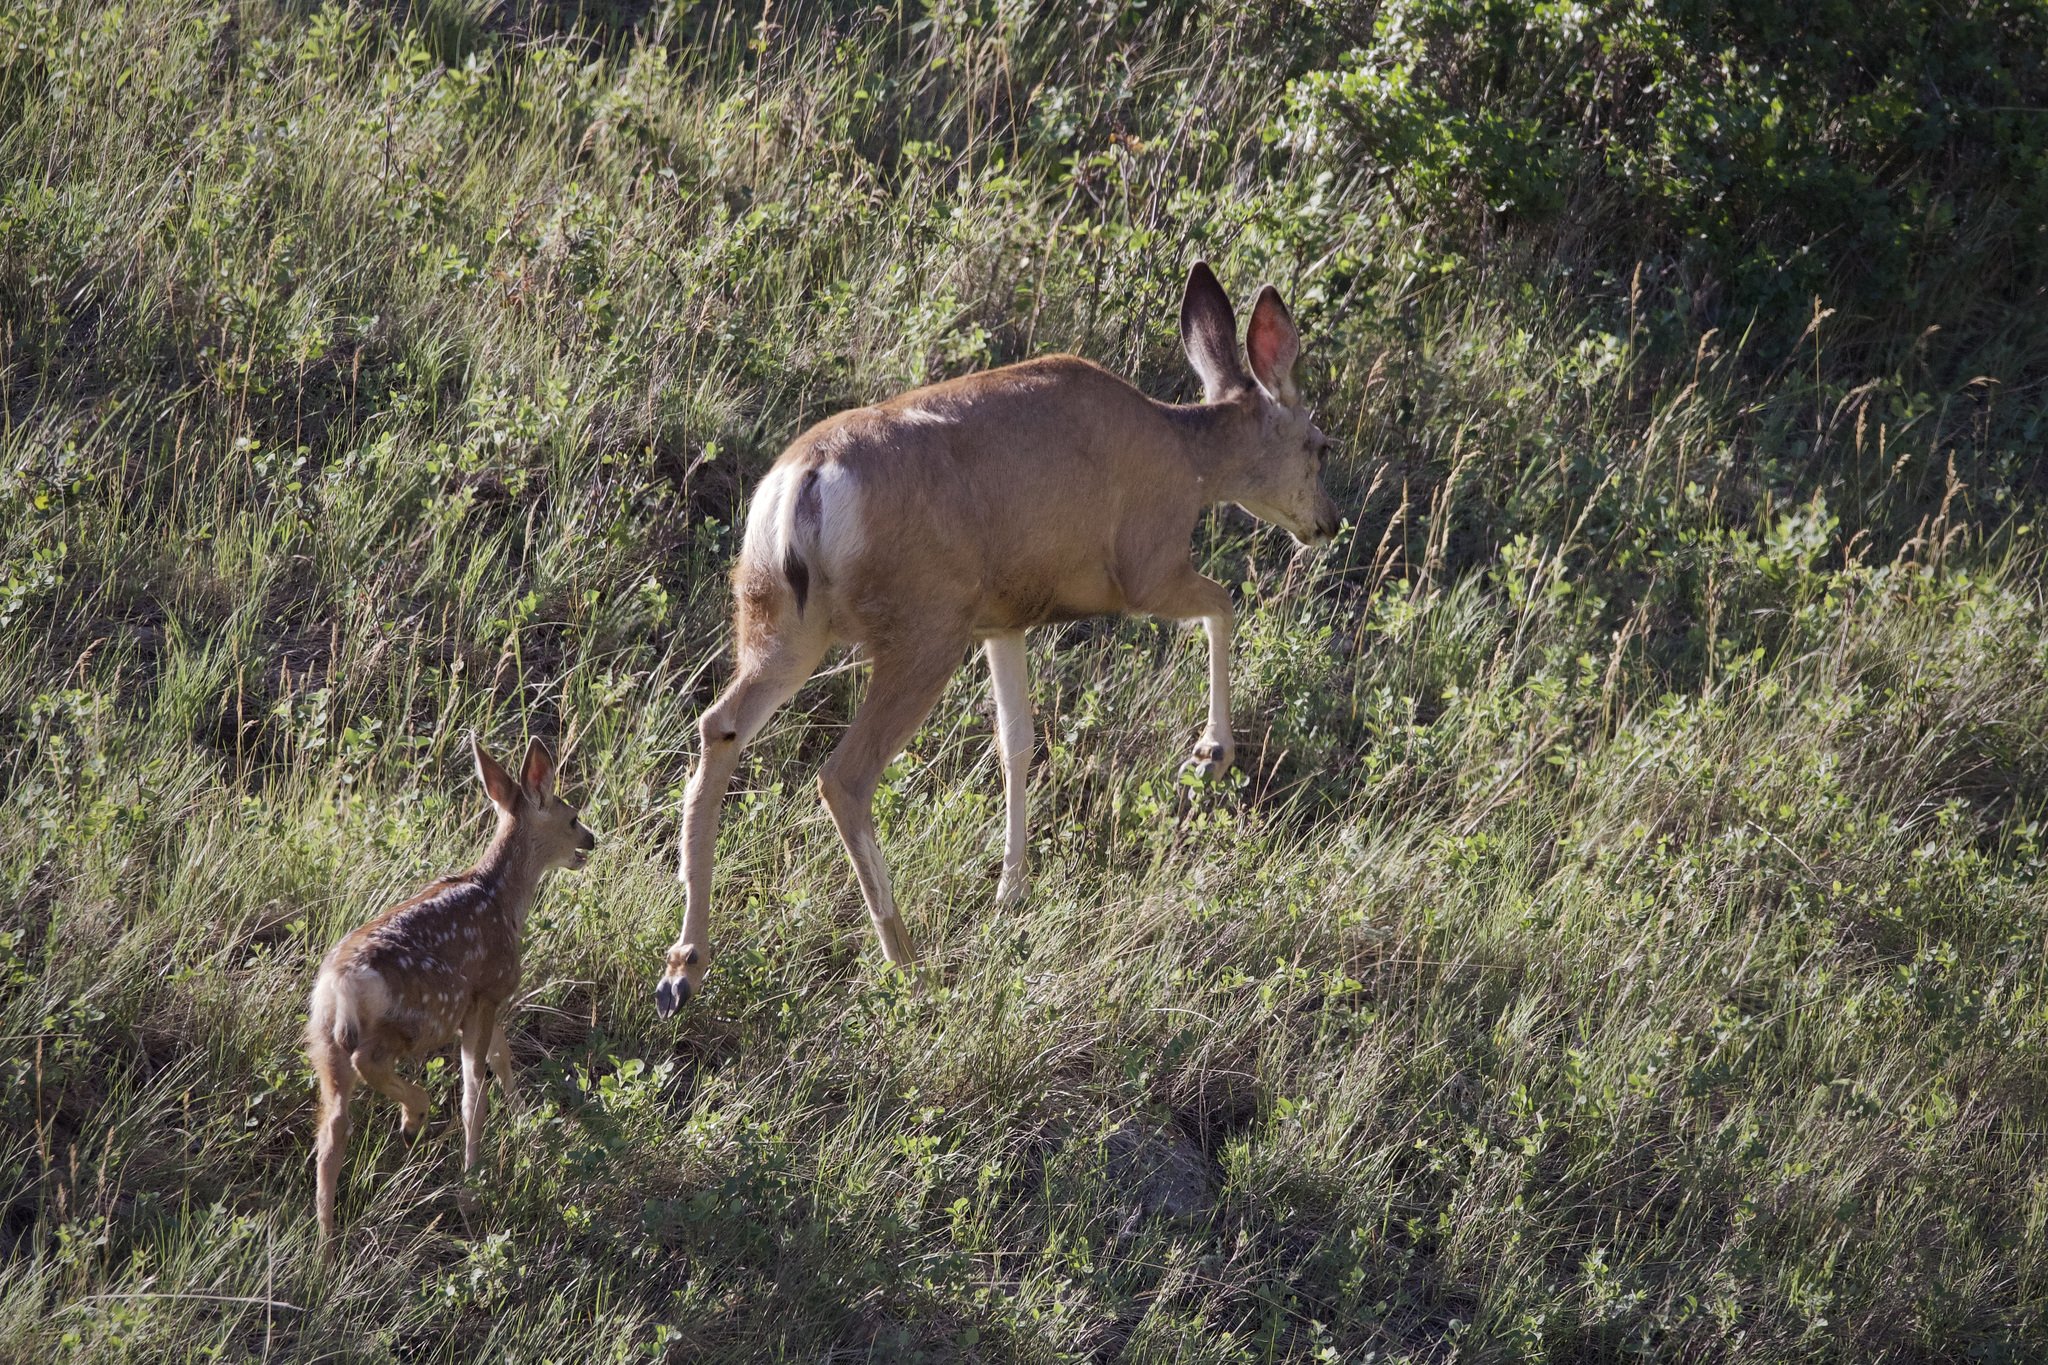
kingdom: Animalia
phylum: Chordata
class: Mammalia
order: Artiodactyla
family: Cervidae
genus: Odocoileus
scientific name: Odocoileus hemionus
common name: Mule deer
